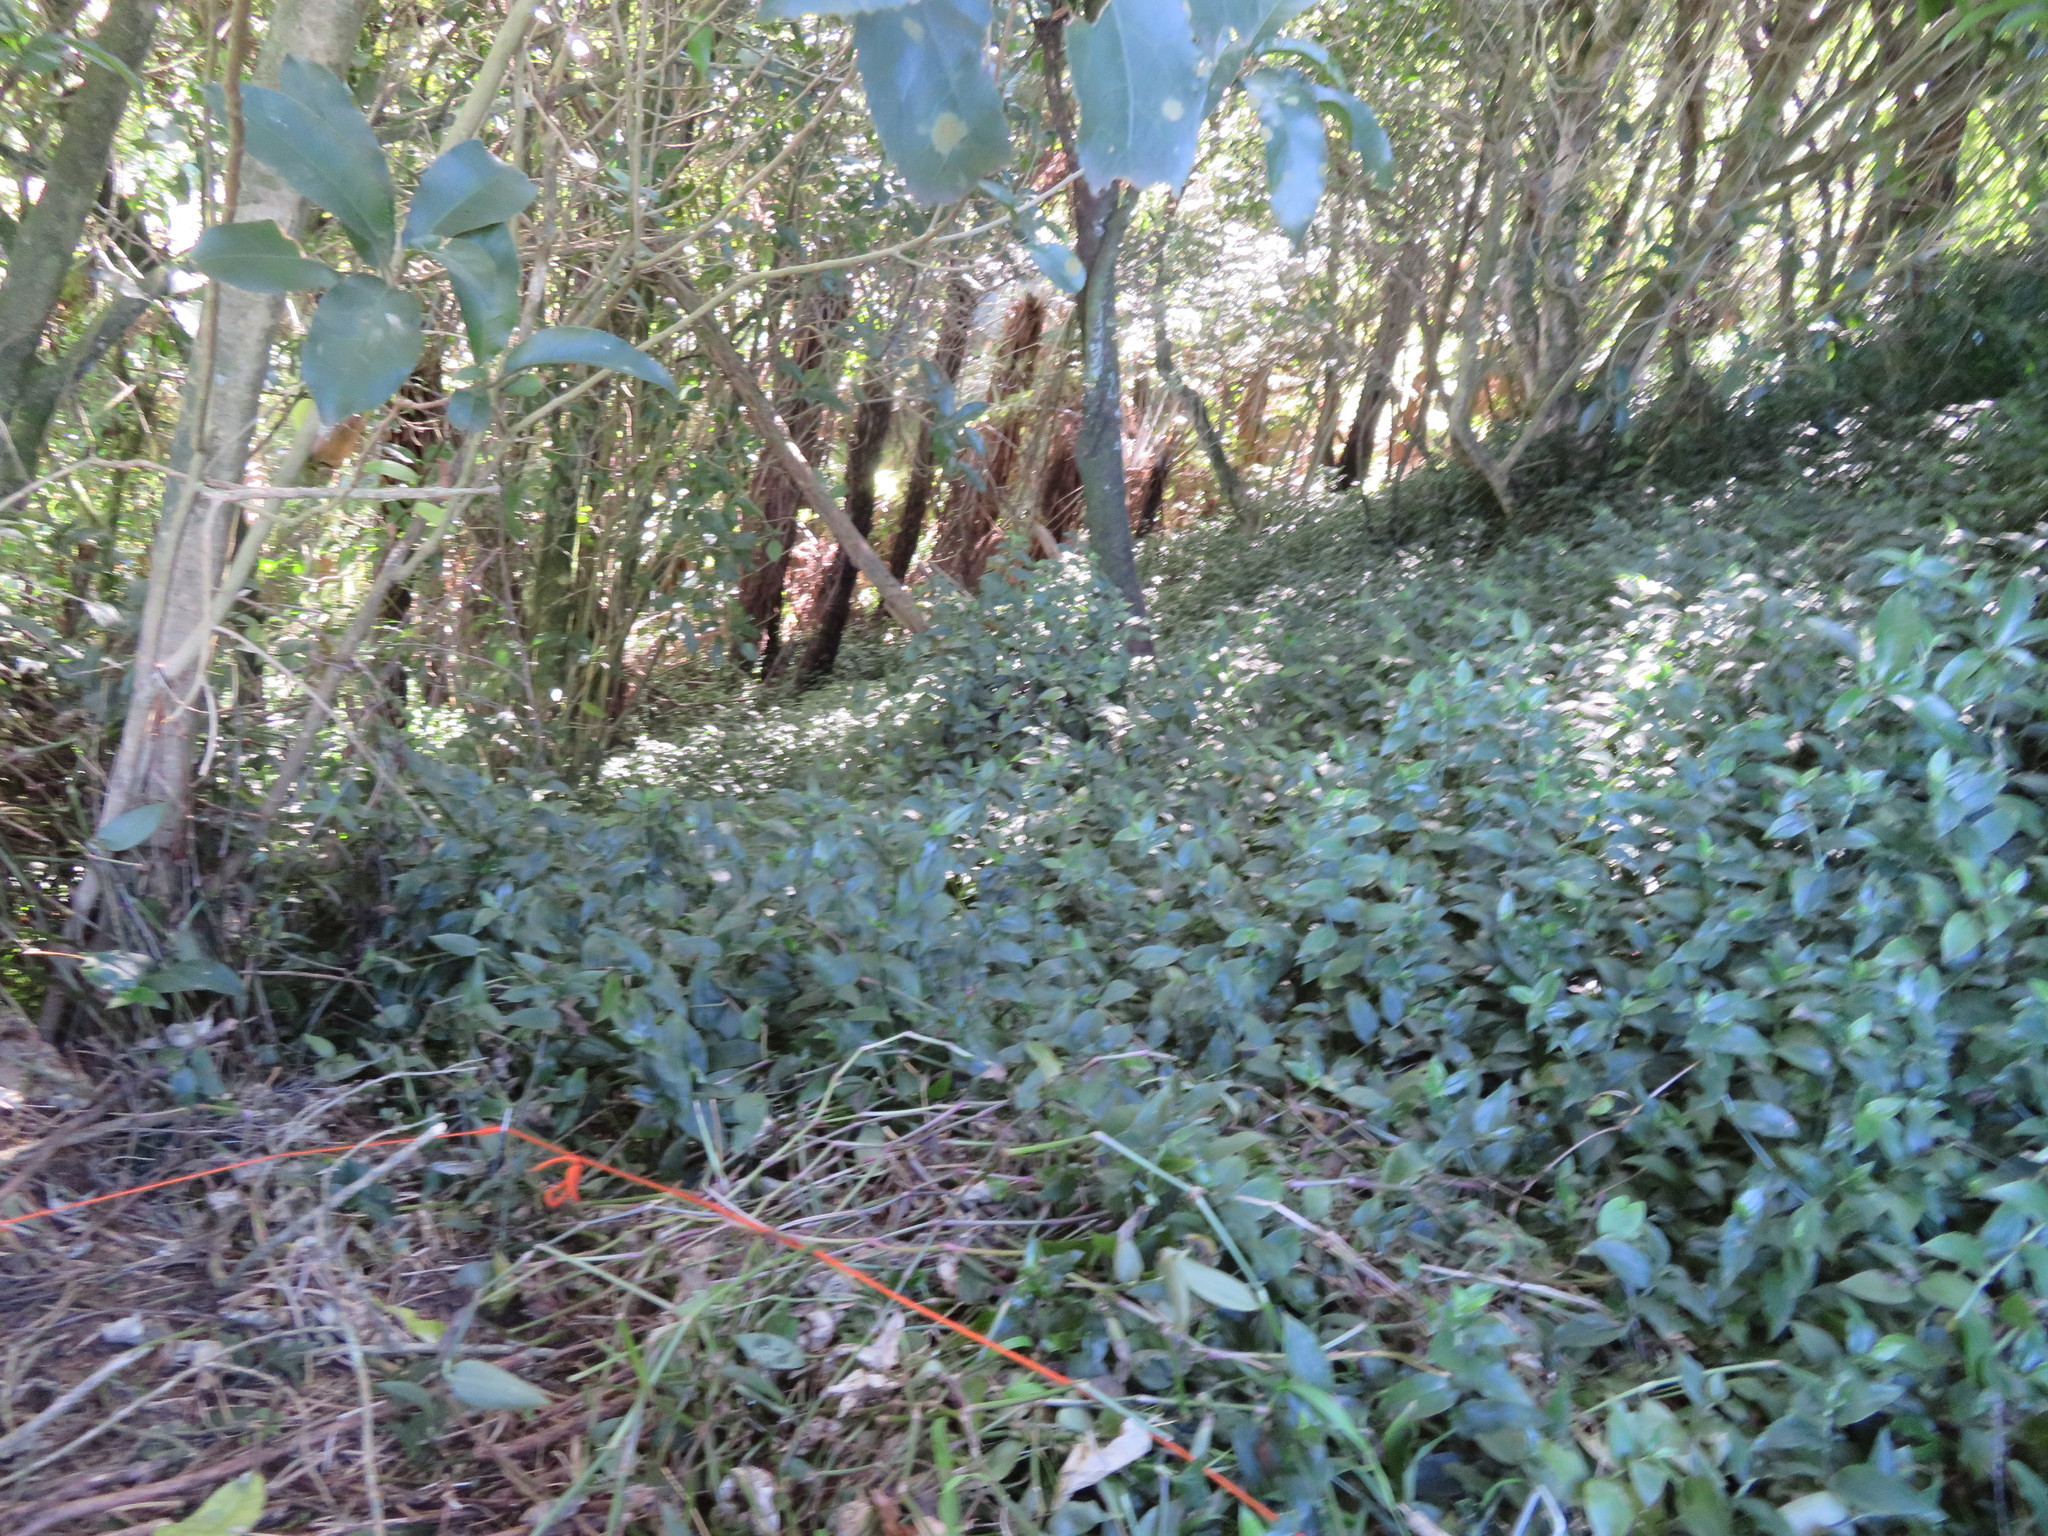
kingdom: Plantae
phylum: Tracheophyta
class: Liliopsida
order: Commelinales
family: Commelinaceae
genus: Tradescantia
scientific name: Tradescantia fluminensis
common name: Wandering-jew
